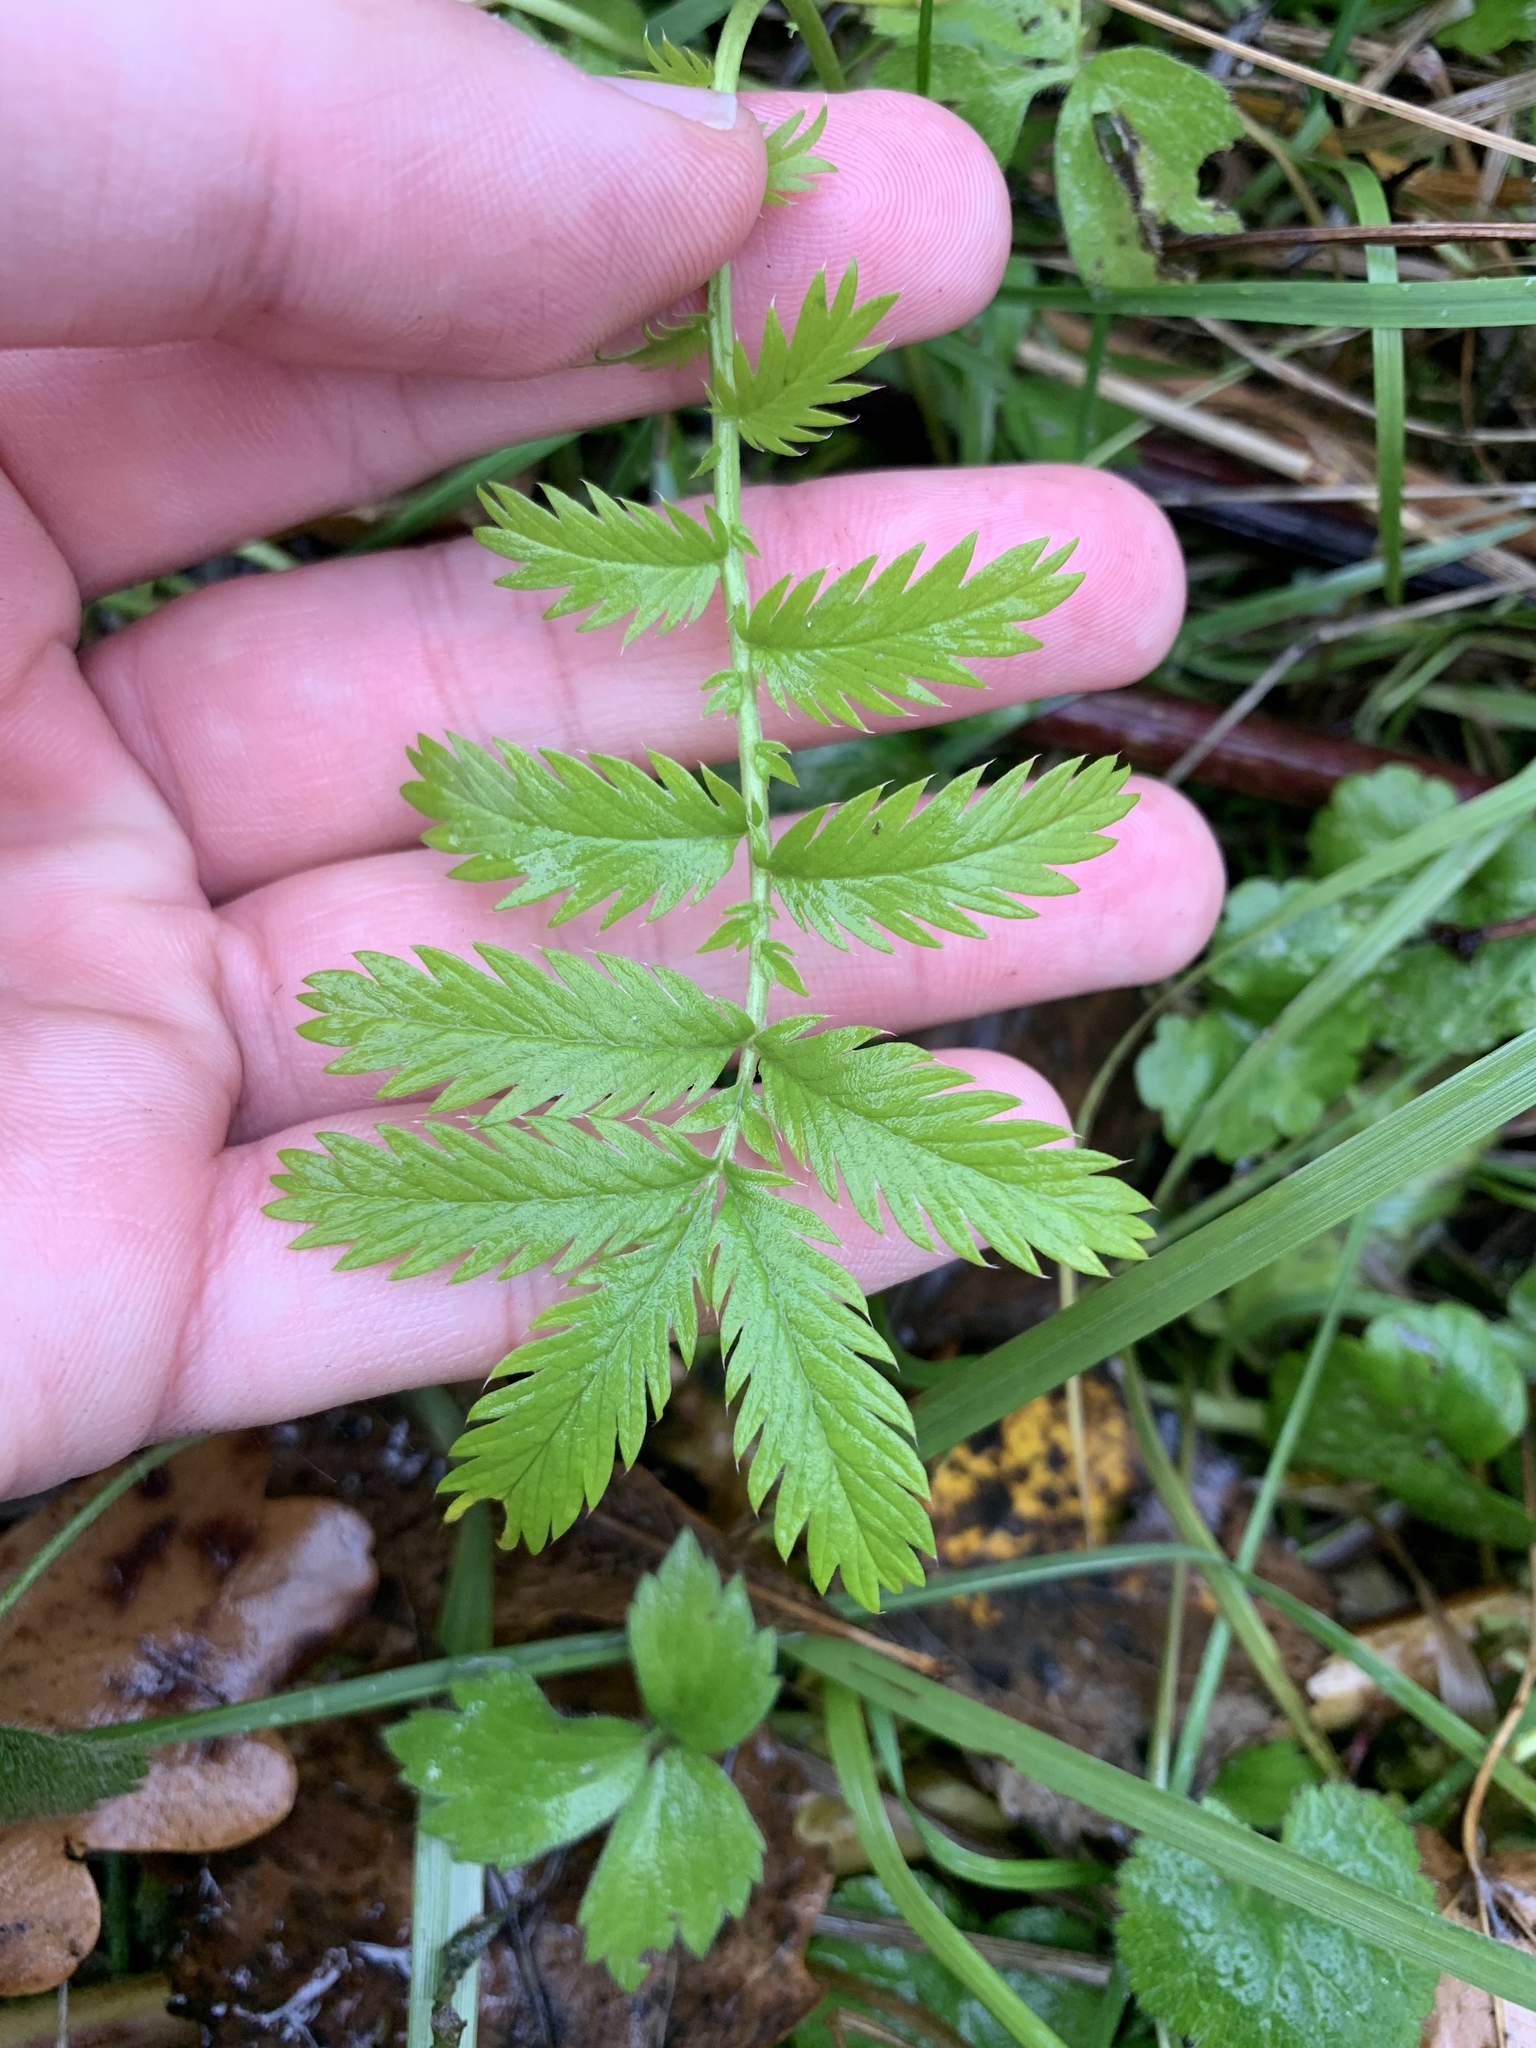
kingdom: Plantae
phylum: Tracheophyta
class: Magnoliopsida
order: Rosales
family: Rosaceae
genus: Argentina
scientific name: Argentina anserina
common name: Common silverweed
